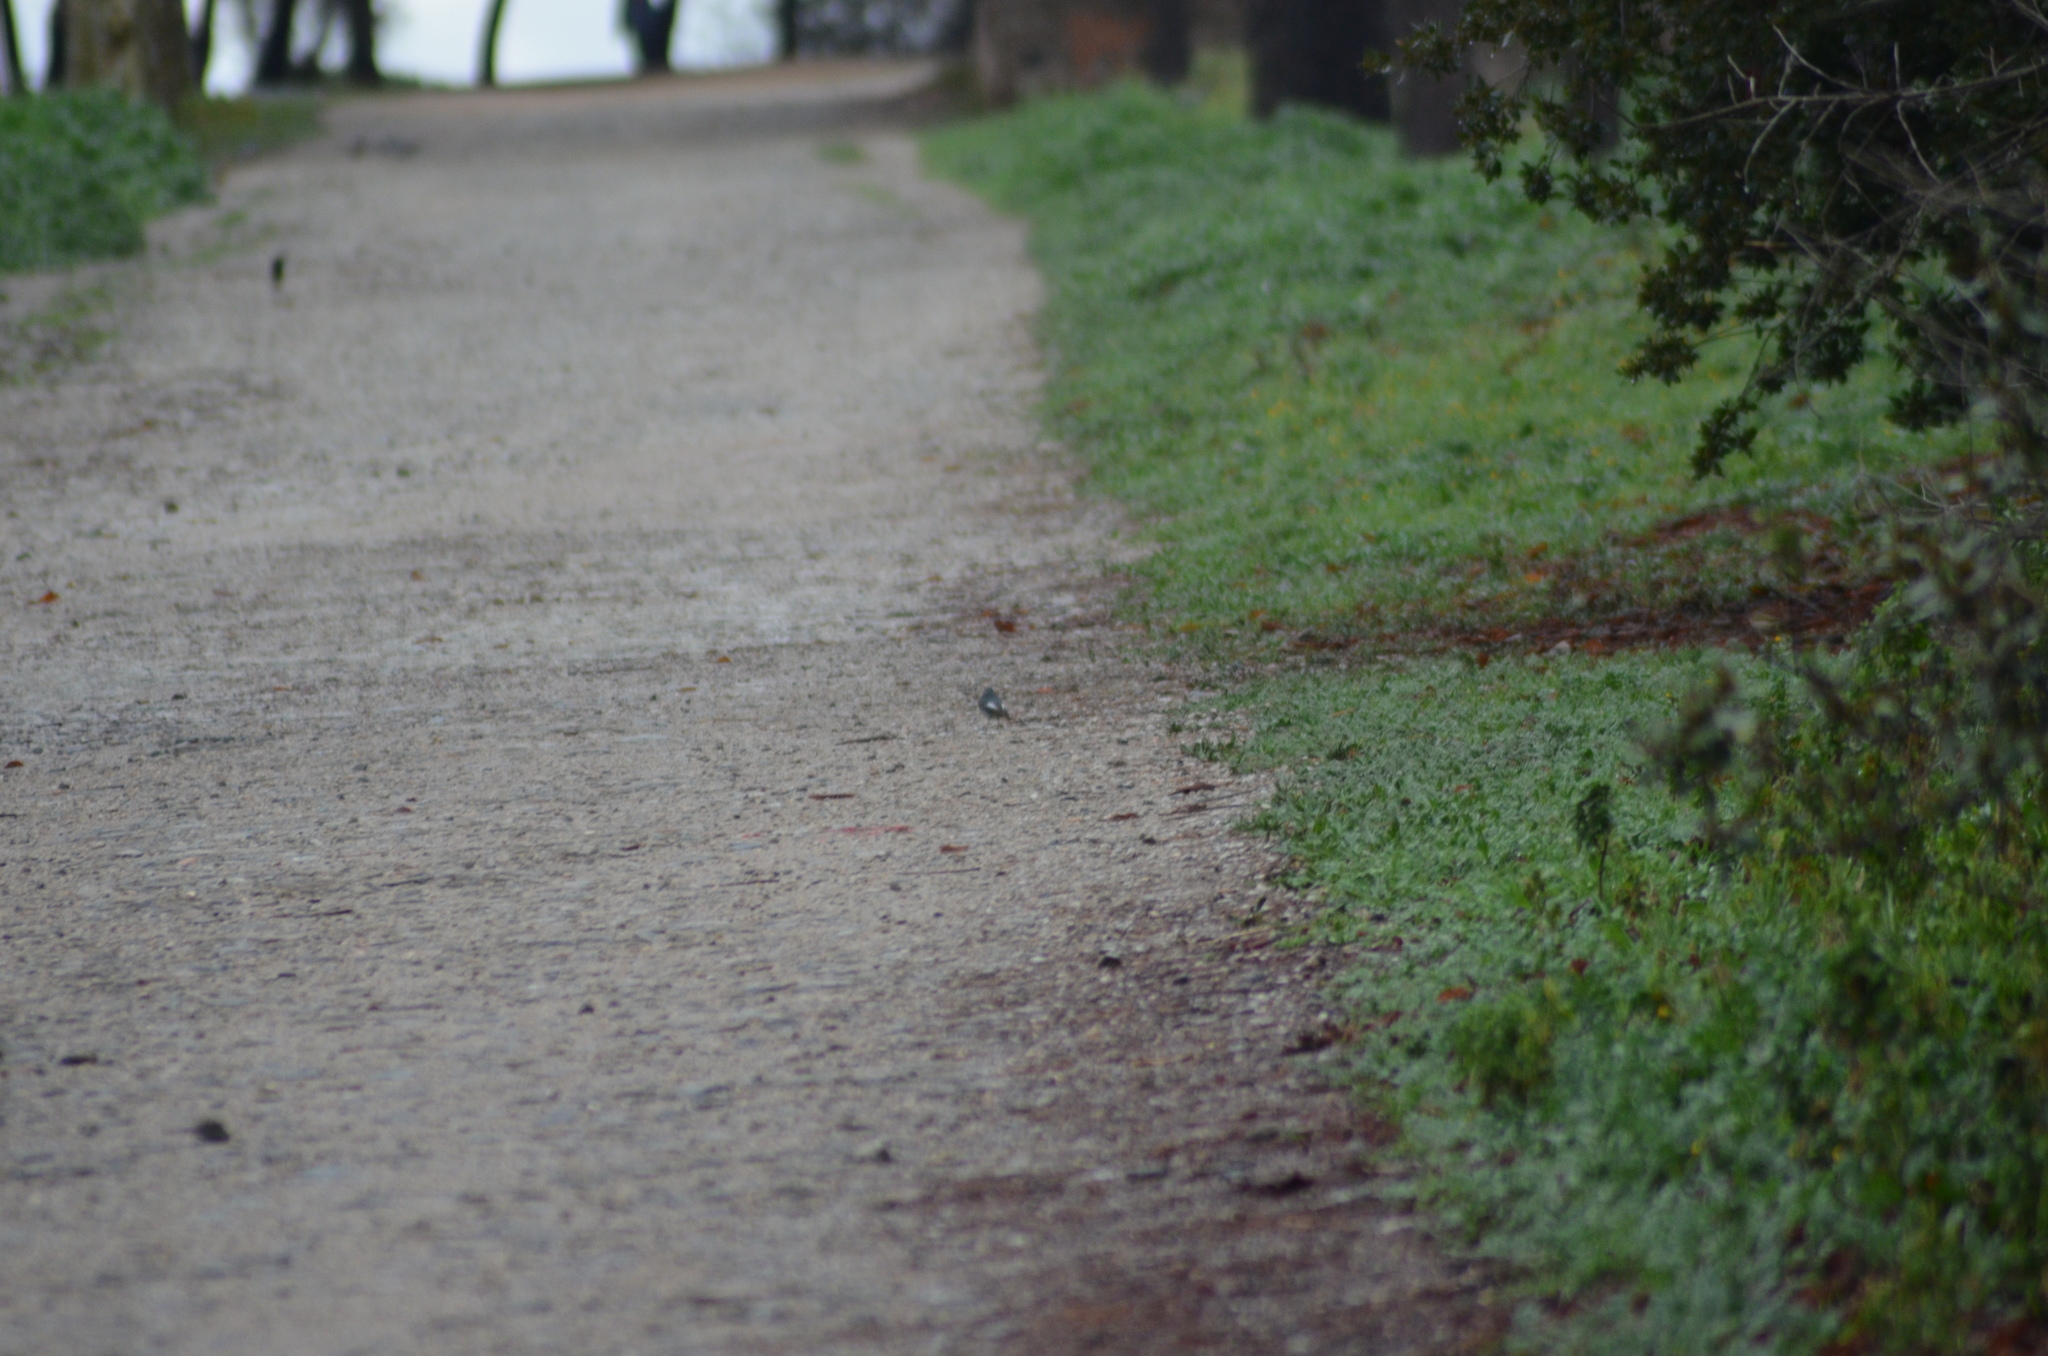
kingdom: Animalia
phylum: Chordata
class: Aves
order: Passeriformes
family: Muscicapidae
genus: Phoenicurus
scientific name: Phoenicurus ochruros
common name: Black redstart
